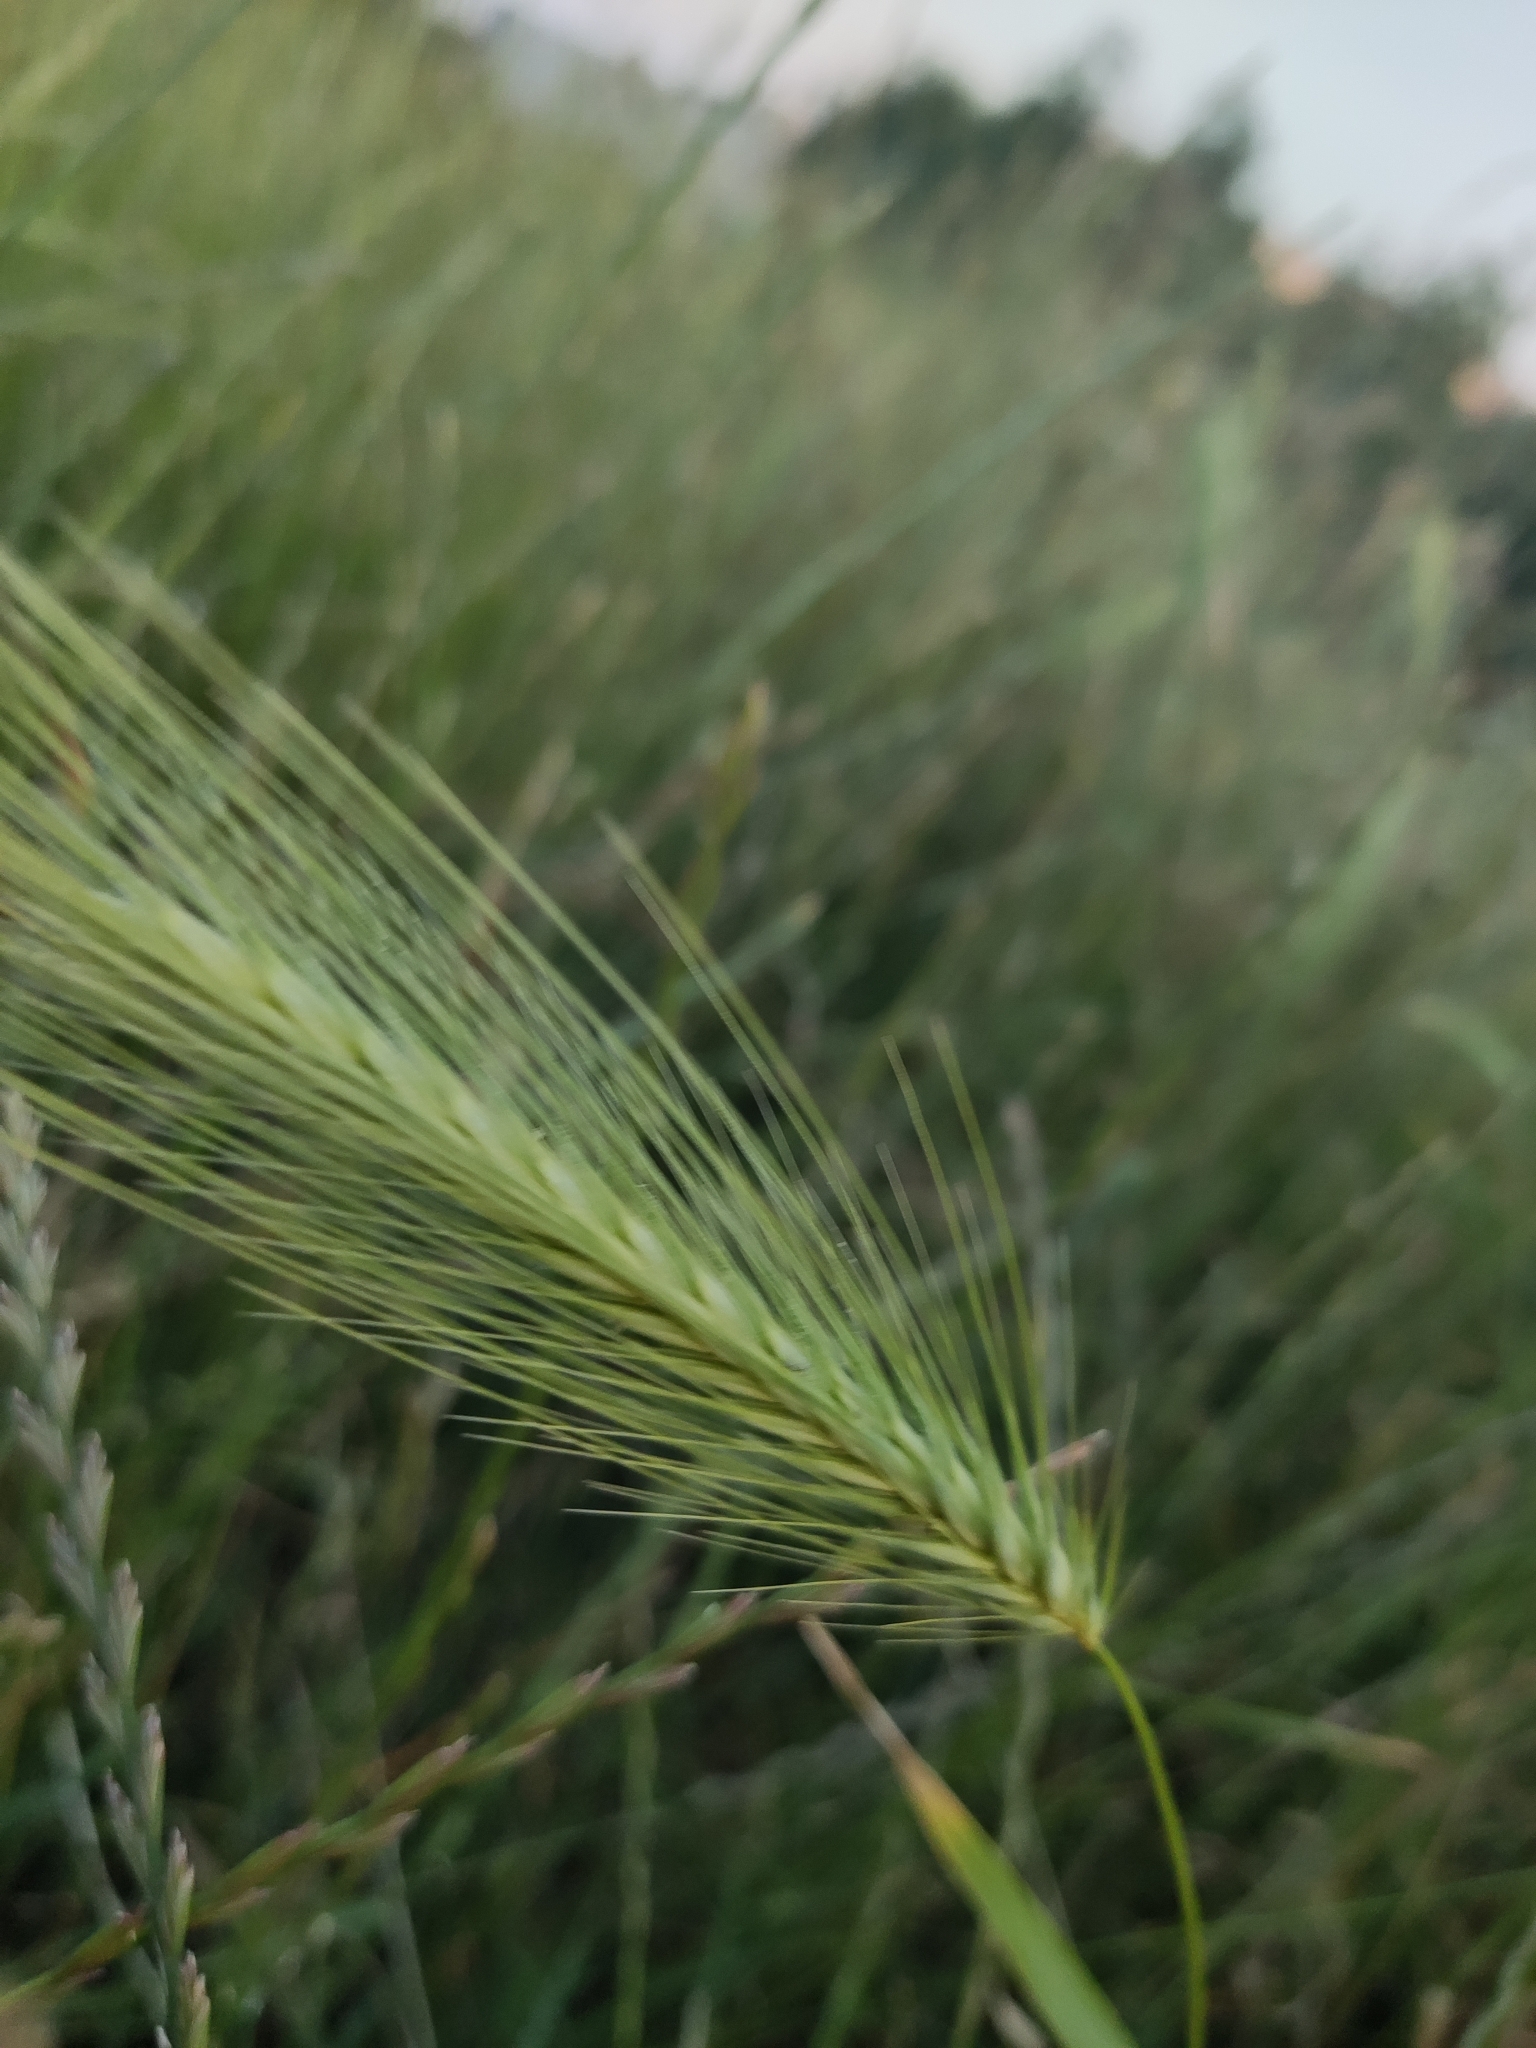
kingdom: Plantae
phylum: Tracheophyta
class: Liliopsida
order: Poales
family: Poaceae
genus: Hordeum
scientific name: Hordeum murinum
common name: Wall barley
